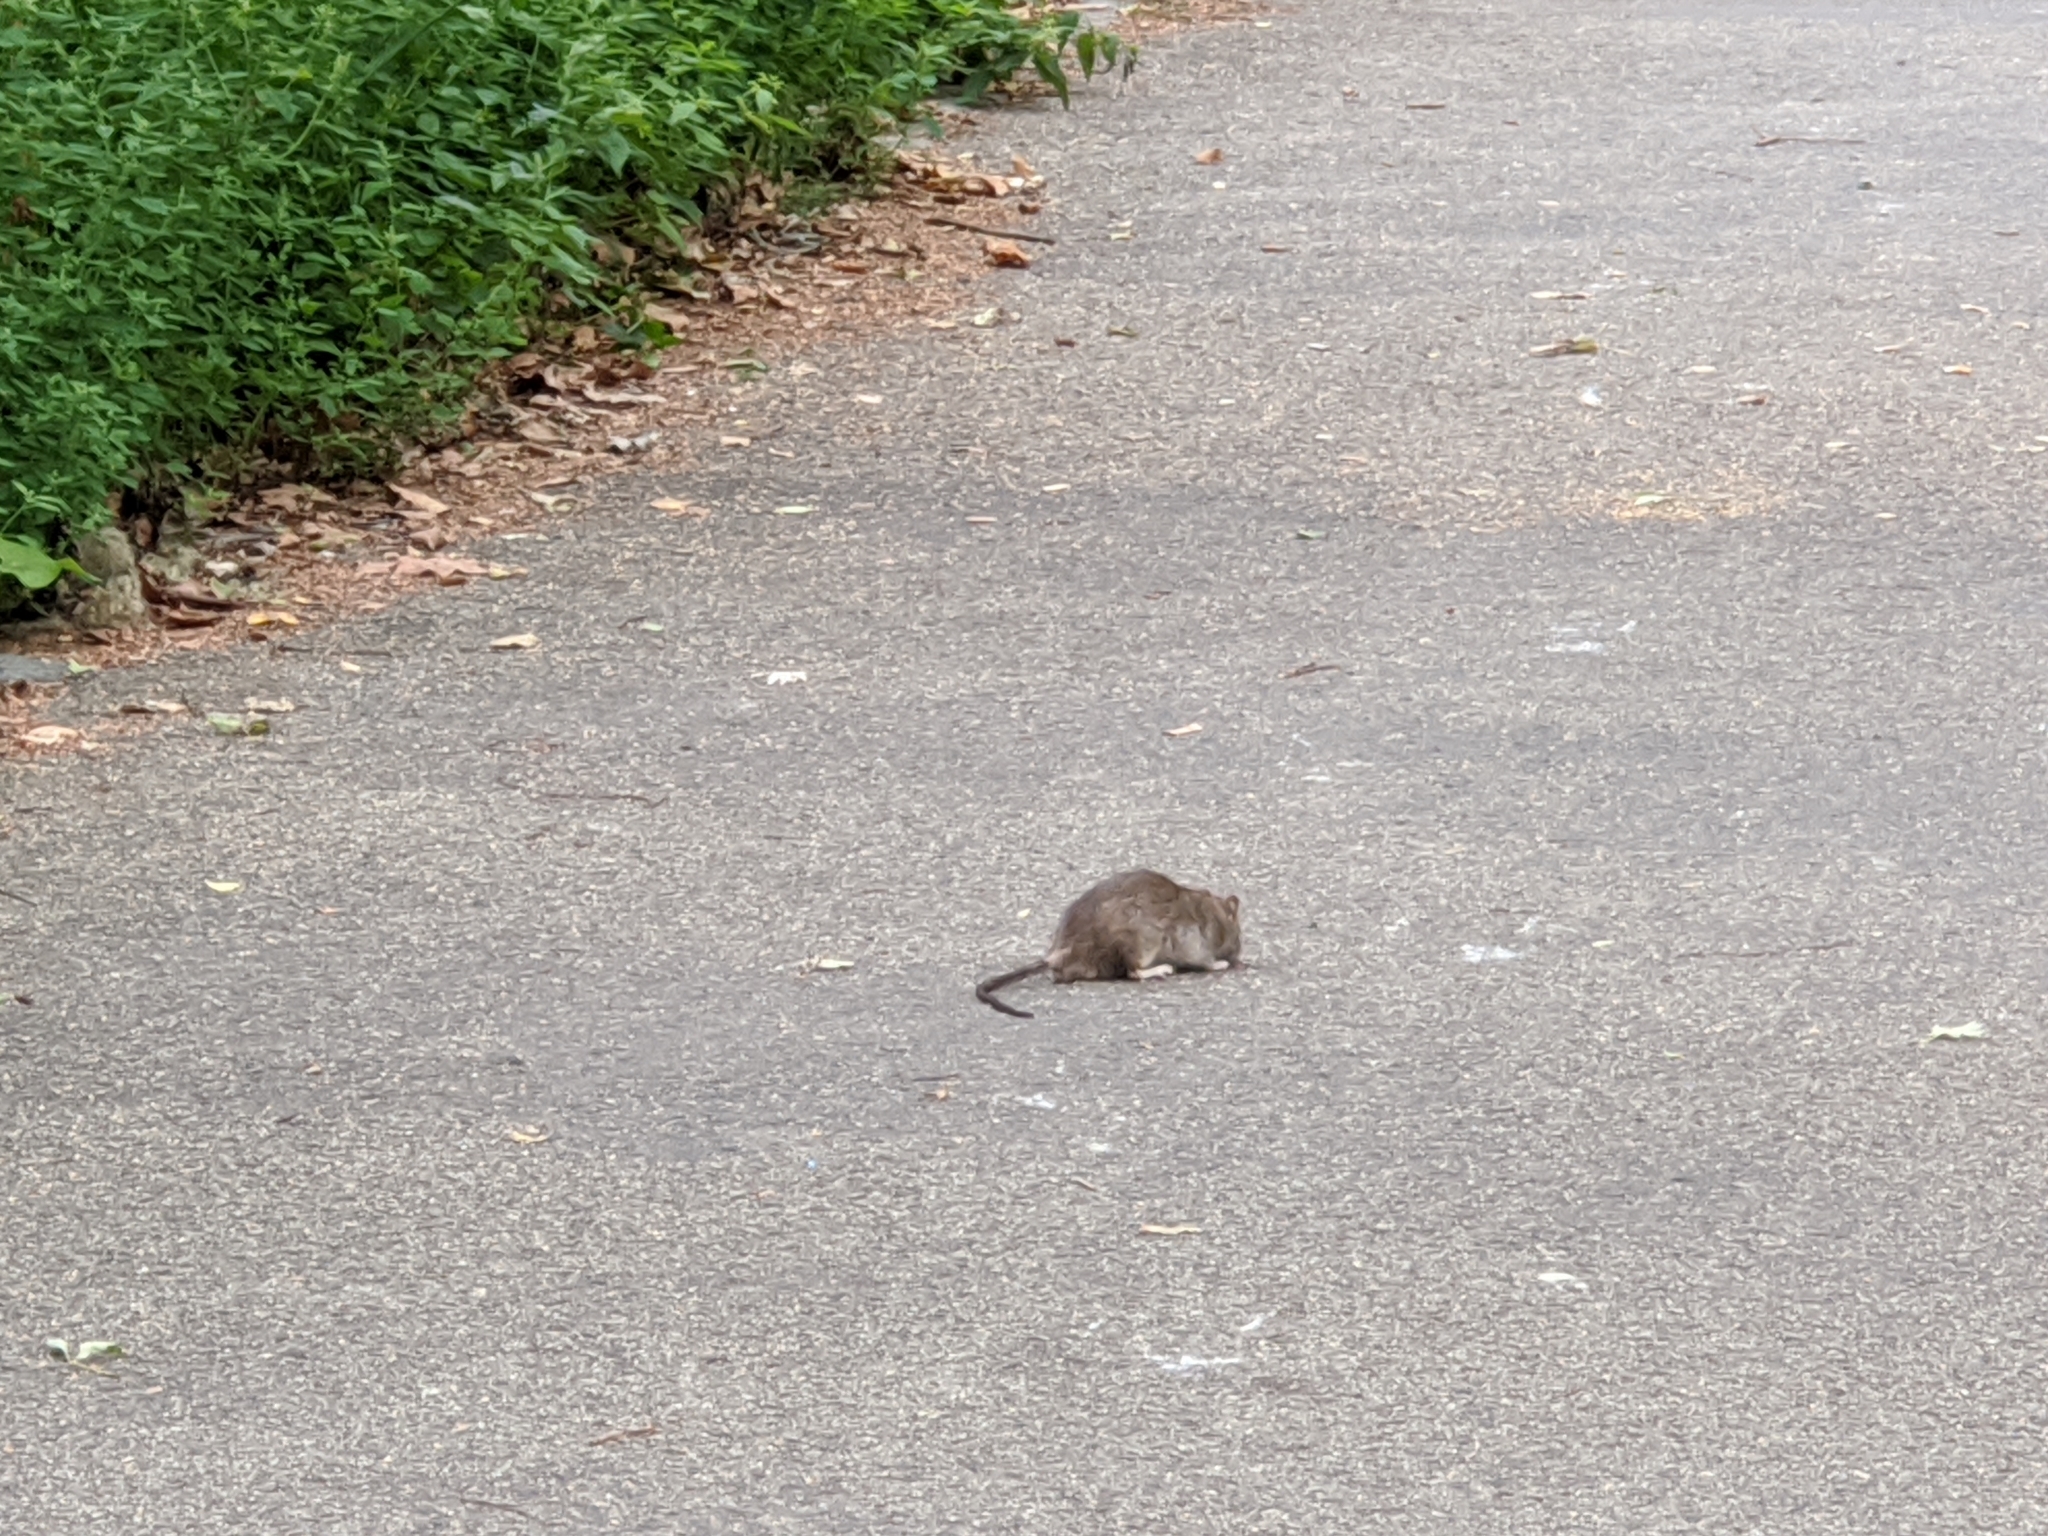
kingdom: Animalia
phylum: Chordata
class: Mammalia
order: Rodentia
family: Muridae
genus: Rattus
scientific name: Rattus norvegicus
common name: Brown rat
